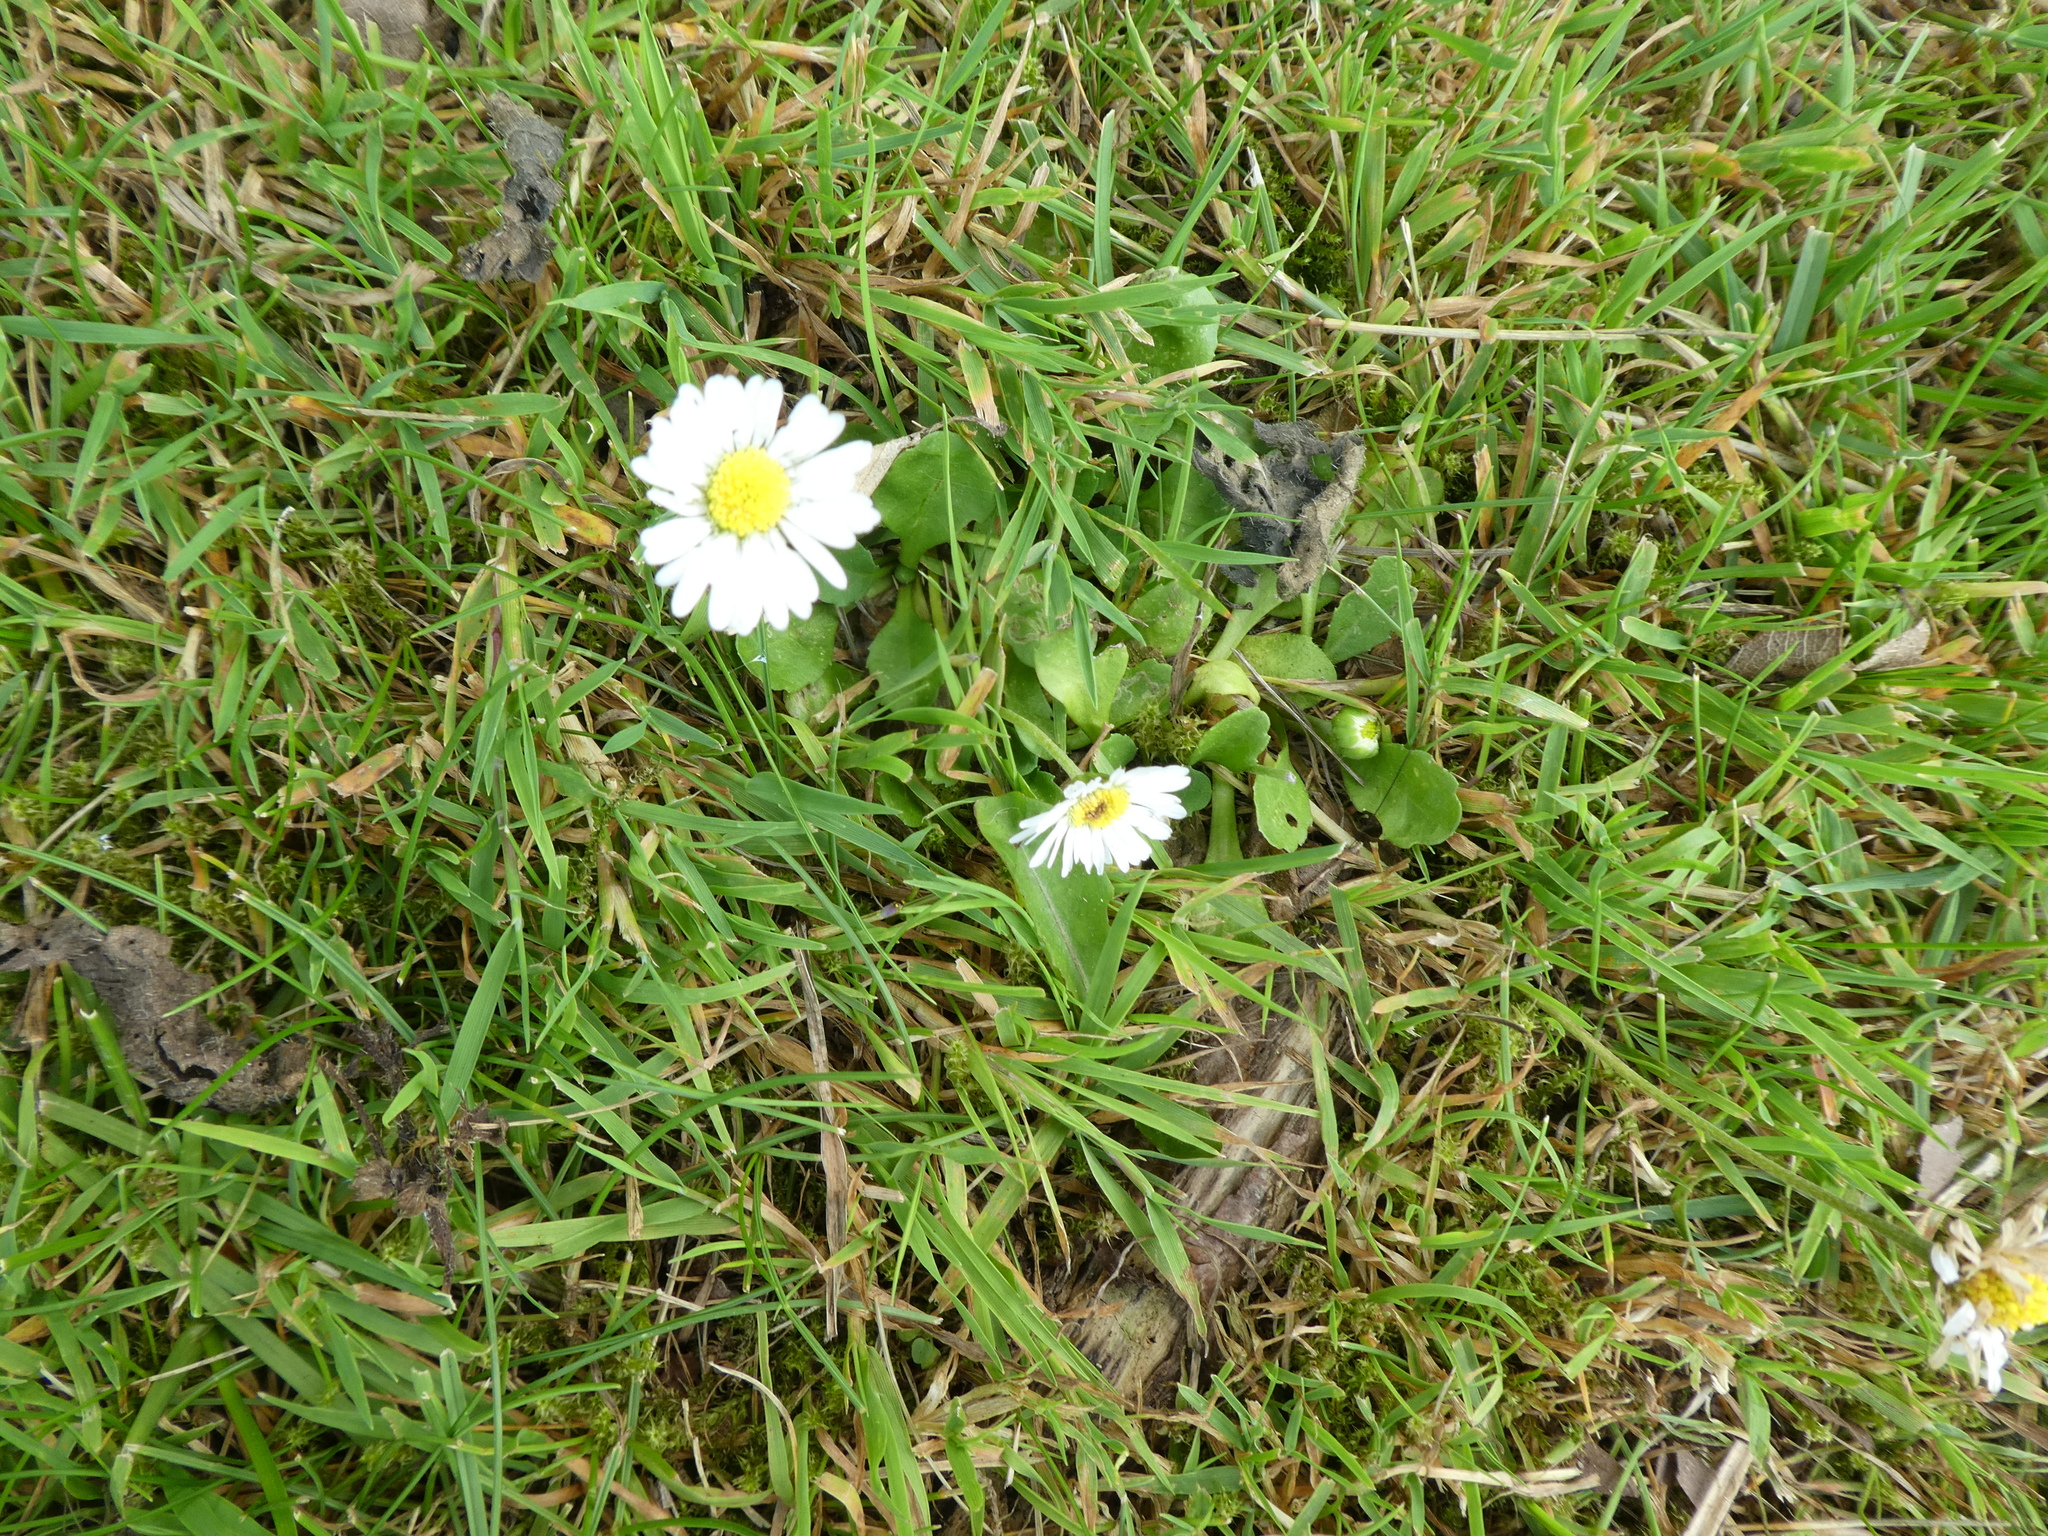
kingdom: Plantae
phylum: Tracheophyta
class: Magnoliopsida
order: Asterales
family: Asteraceae
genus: Bellis
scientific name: Bellis perennis
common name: Lawndaisy
